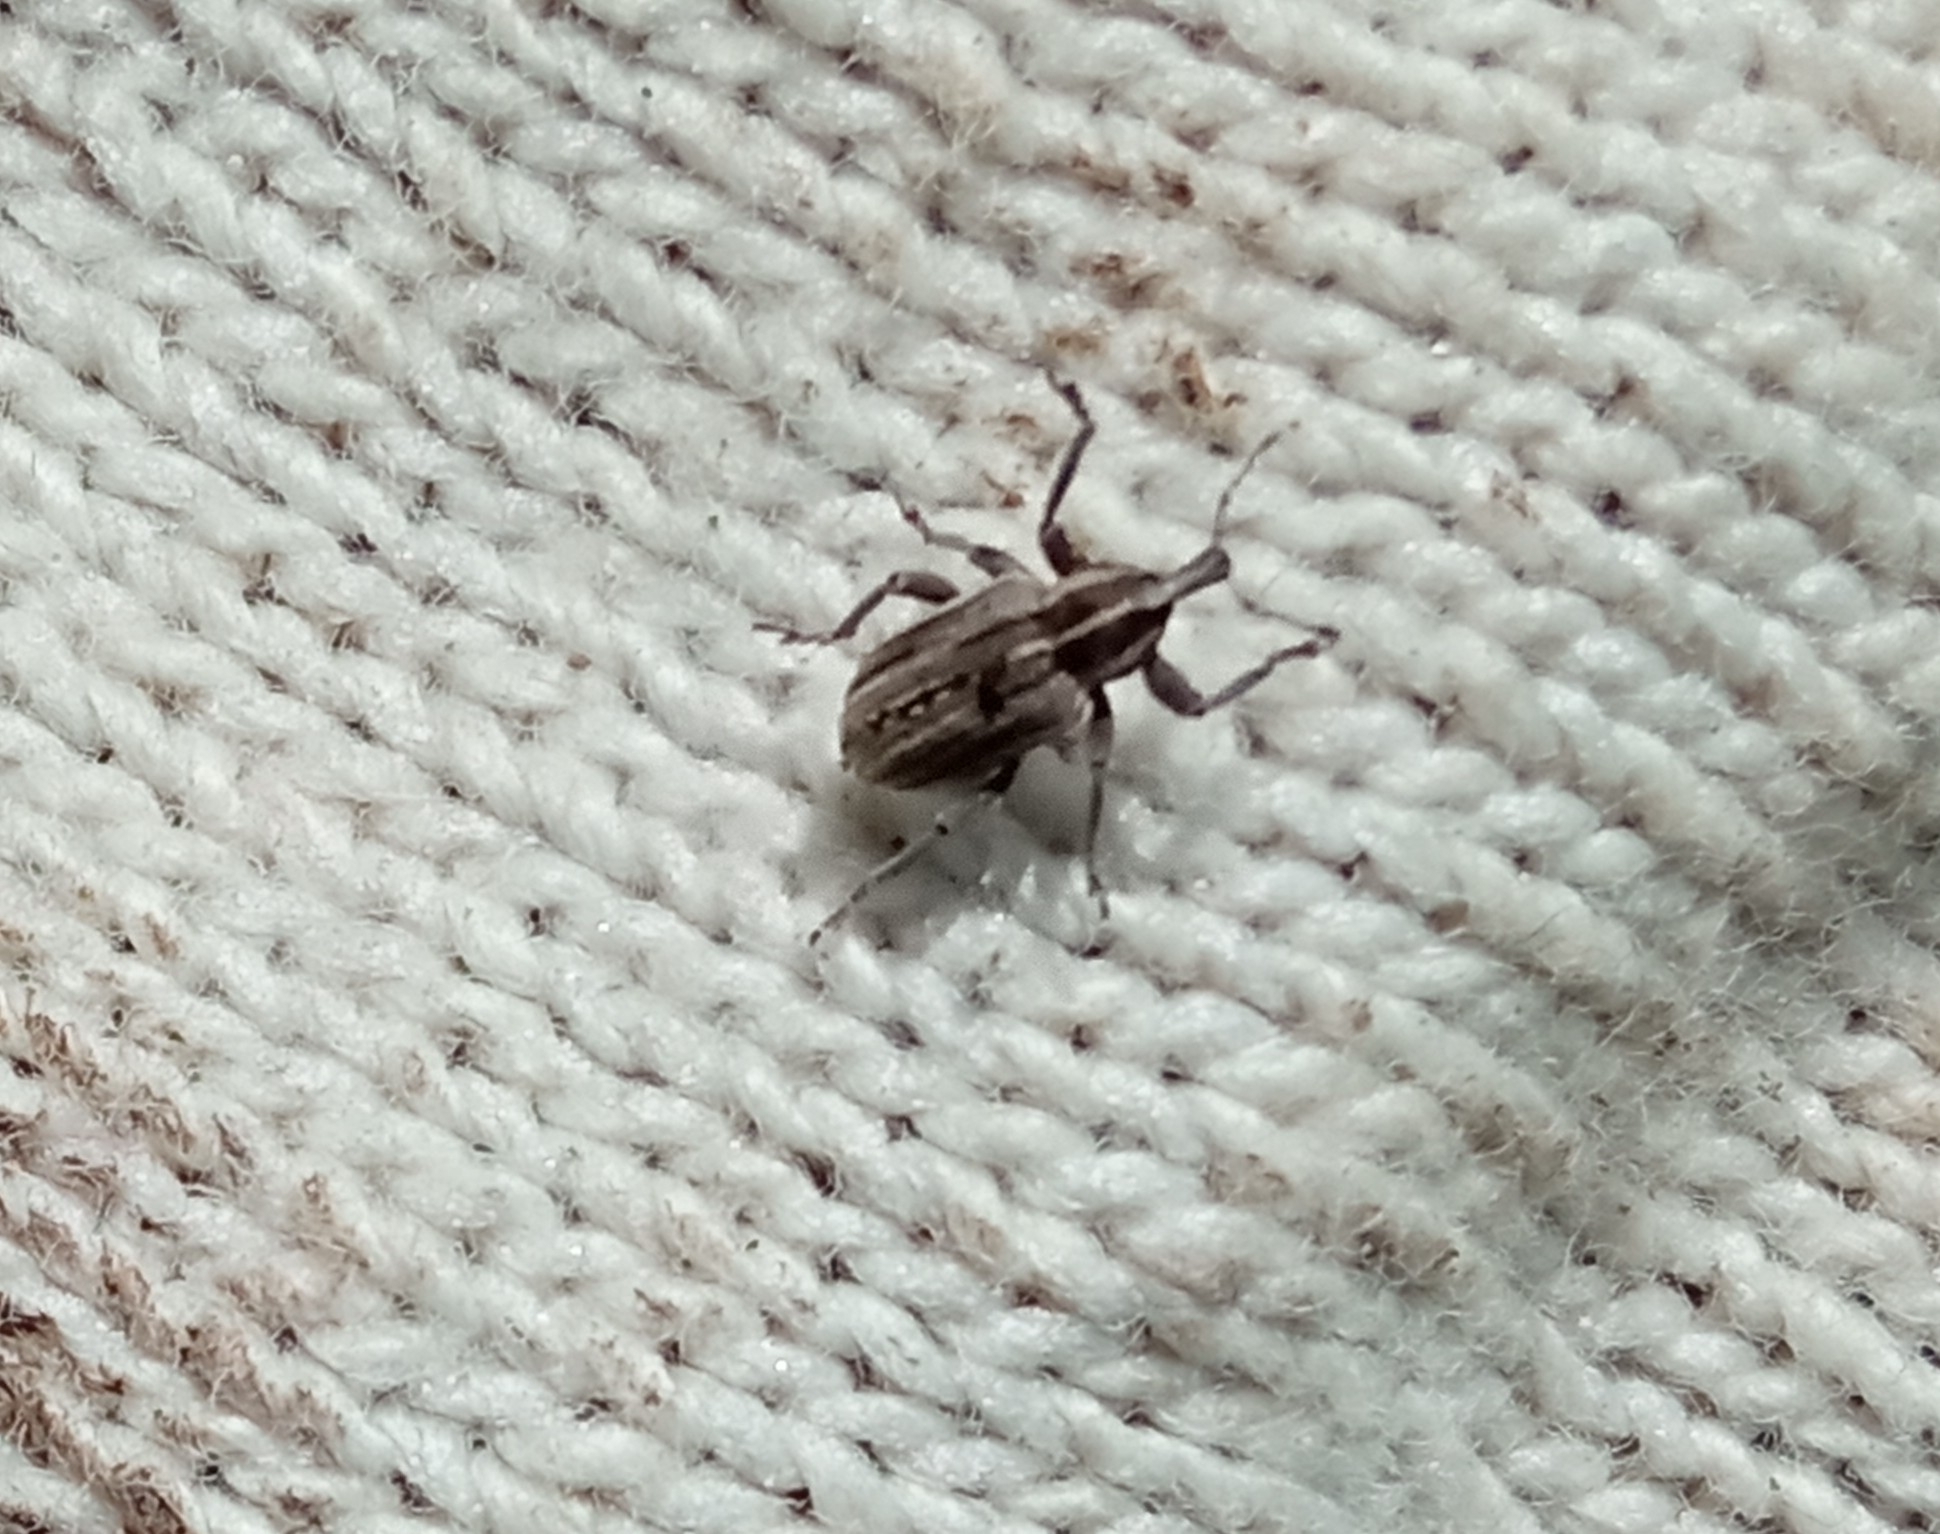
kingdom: Animalia
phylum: Arthropoda
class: Insecta
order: Coleoptera
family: Curculionidae
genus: Hypera
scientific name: Hypera arator
